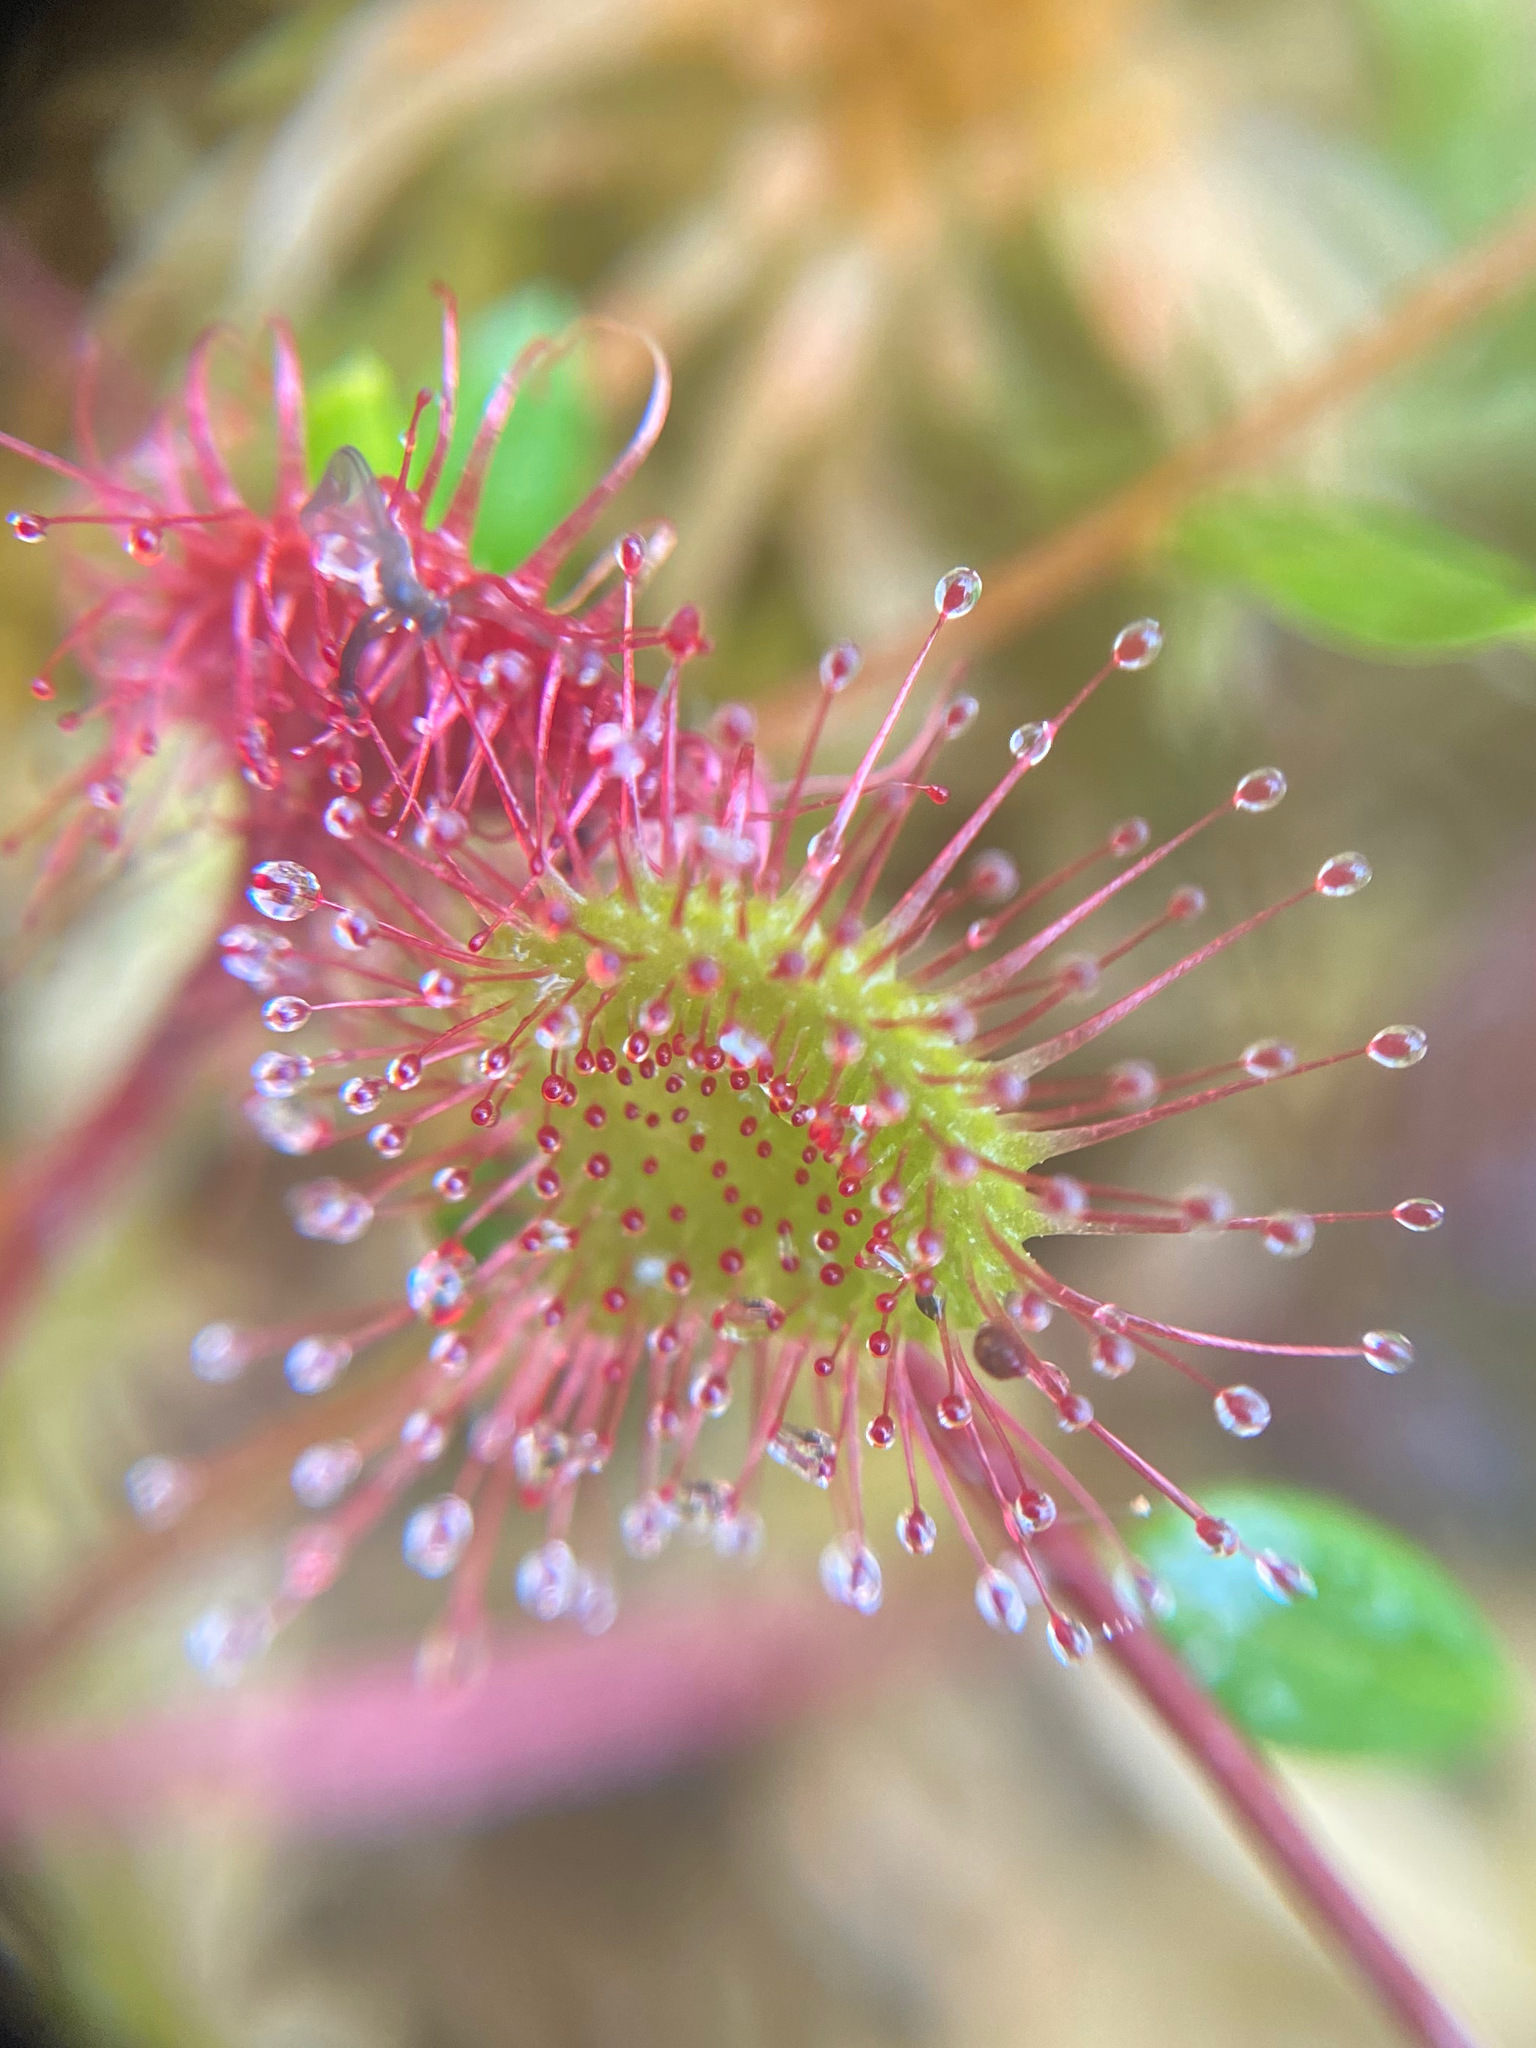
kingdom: Plantae
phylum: Tracheophyta
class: Magnoliopsida
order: Caryophyllales
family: Droseraceae
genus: Drosera
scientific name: Drosera rotundifolia
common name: Round-leaved sundew
